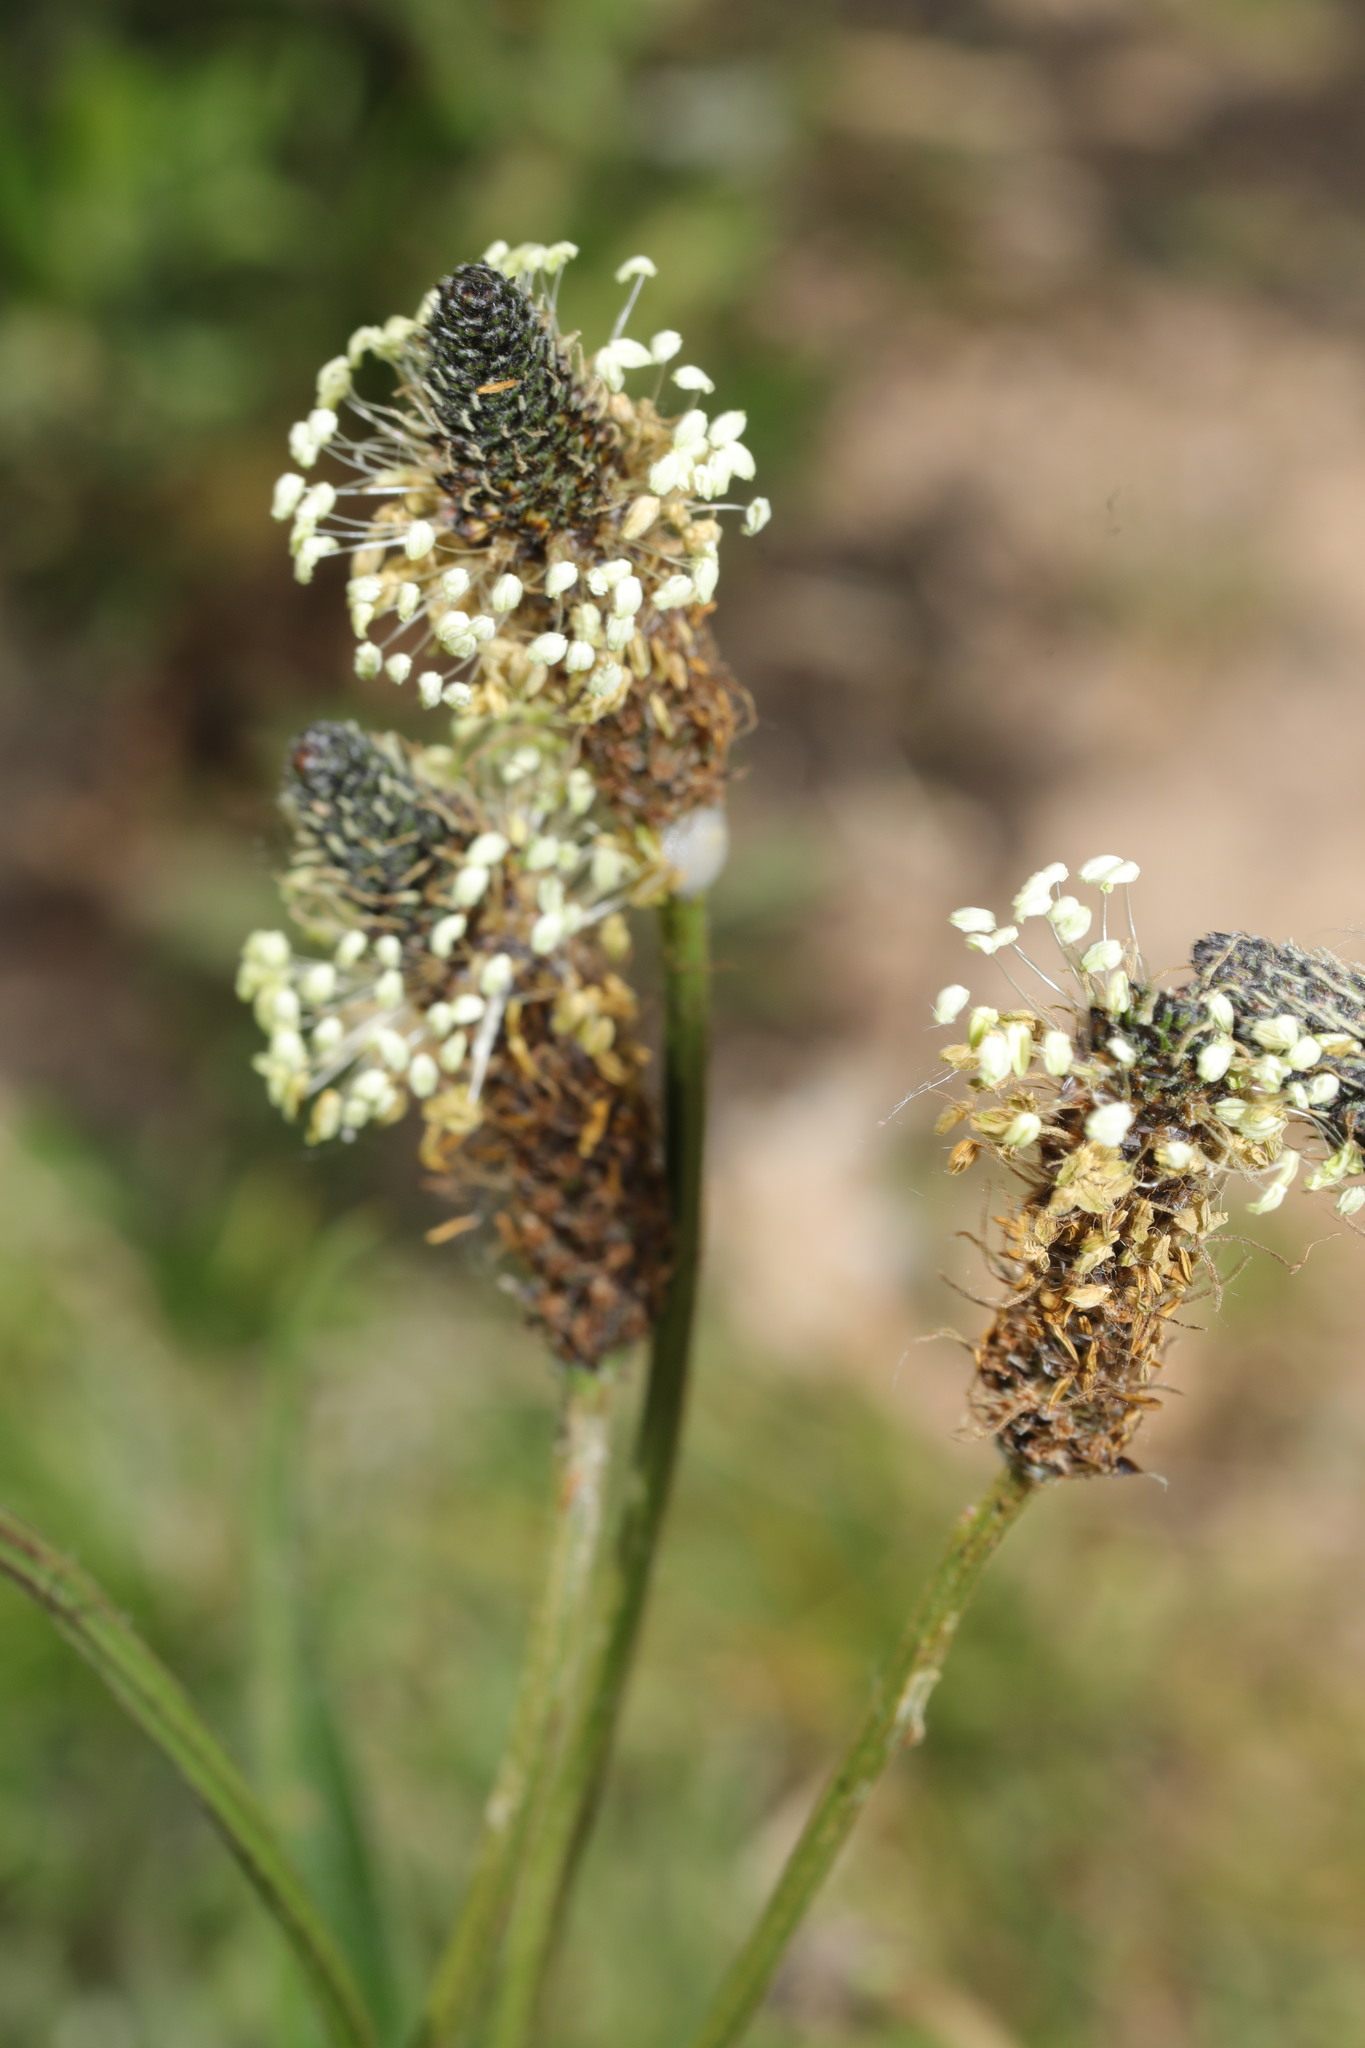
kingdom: Plantae
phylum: Tracheophyta
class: Magnoliopsida
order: Lamiales
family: Plantaginaceae
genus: Plantago
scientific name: Plantago lanceolata
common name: Ribwort plantain
